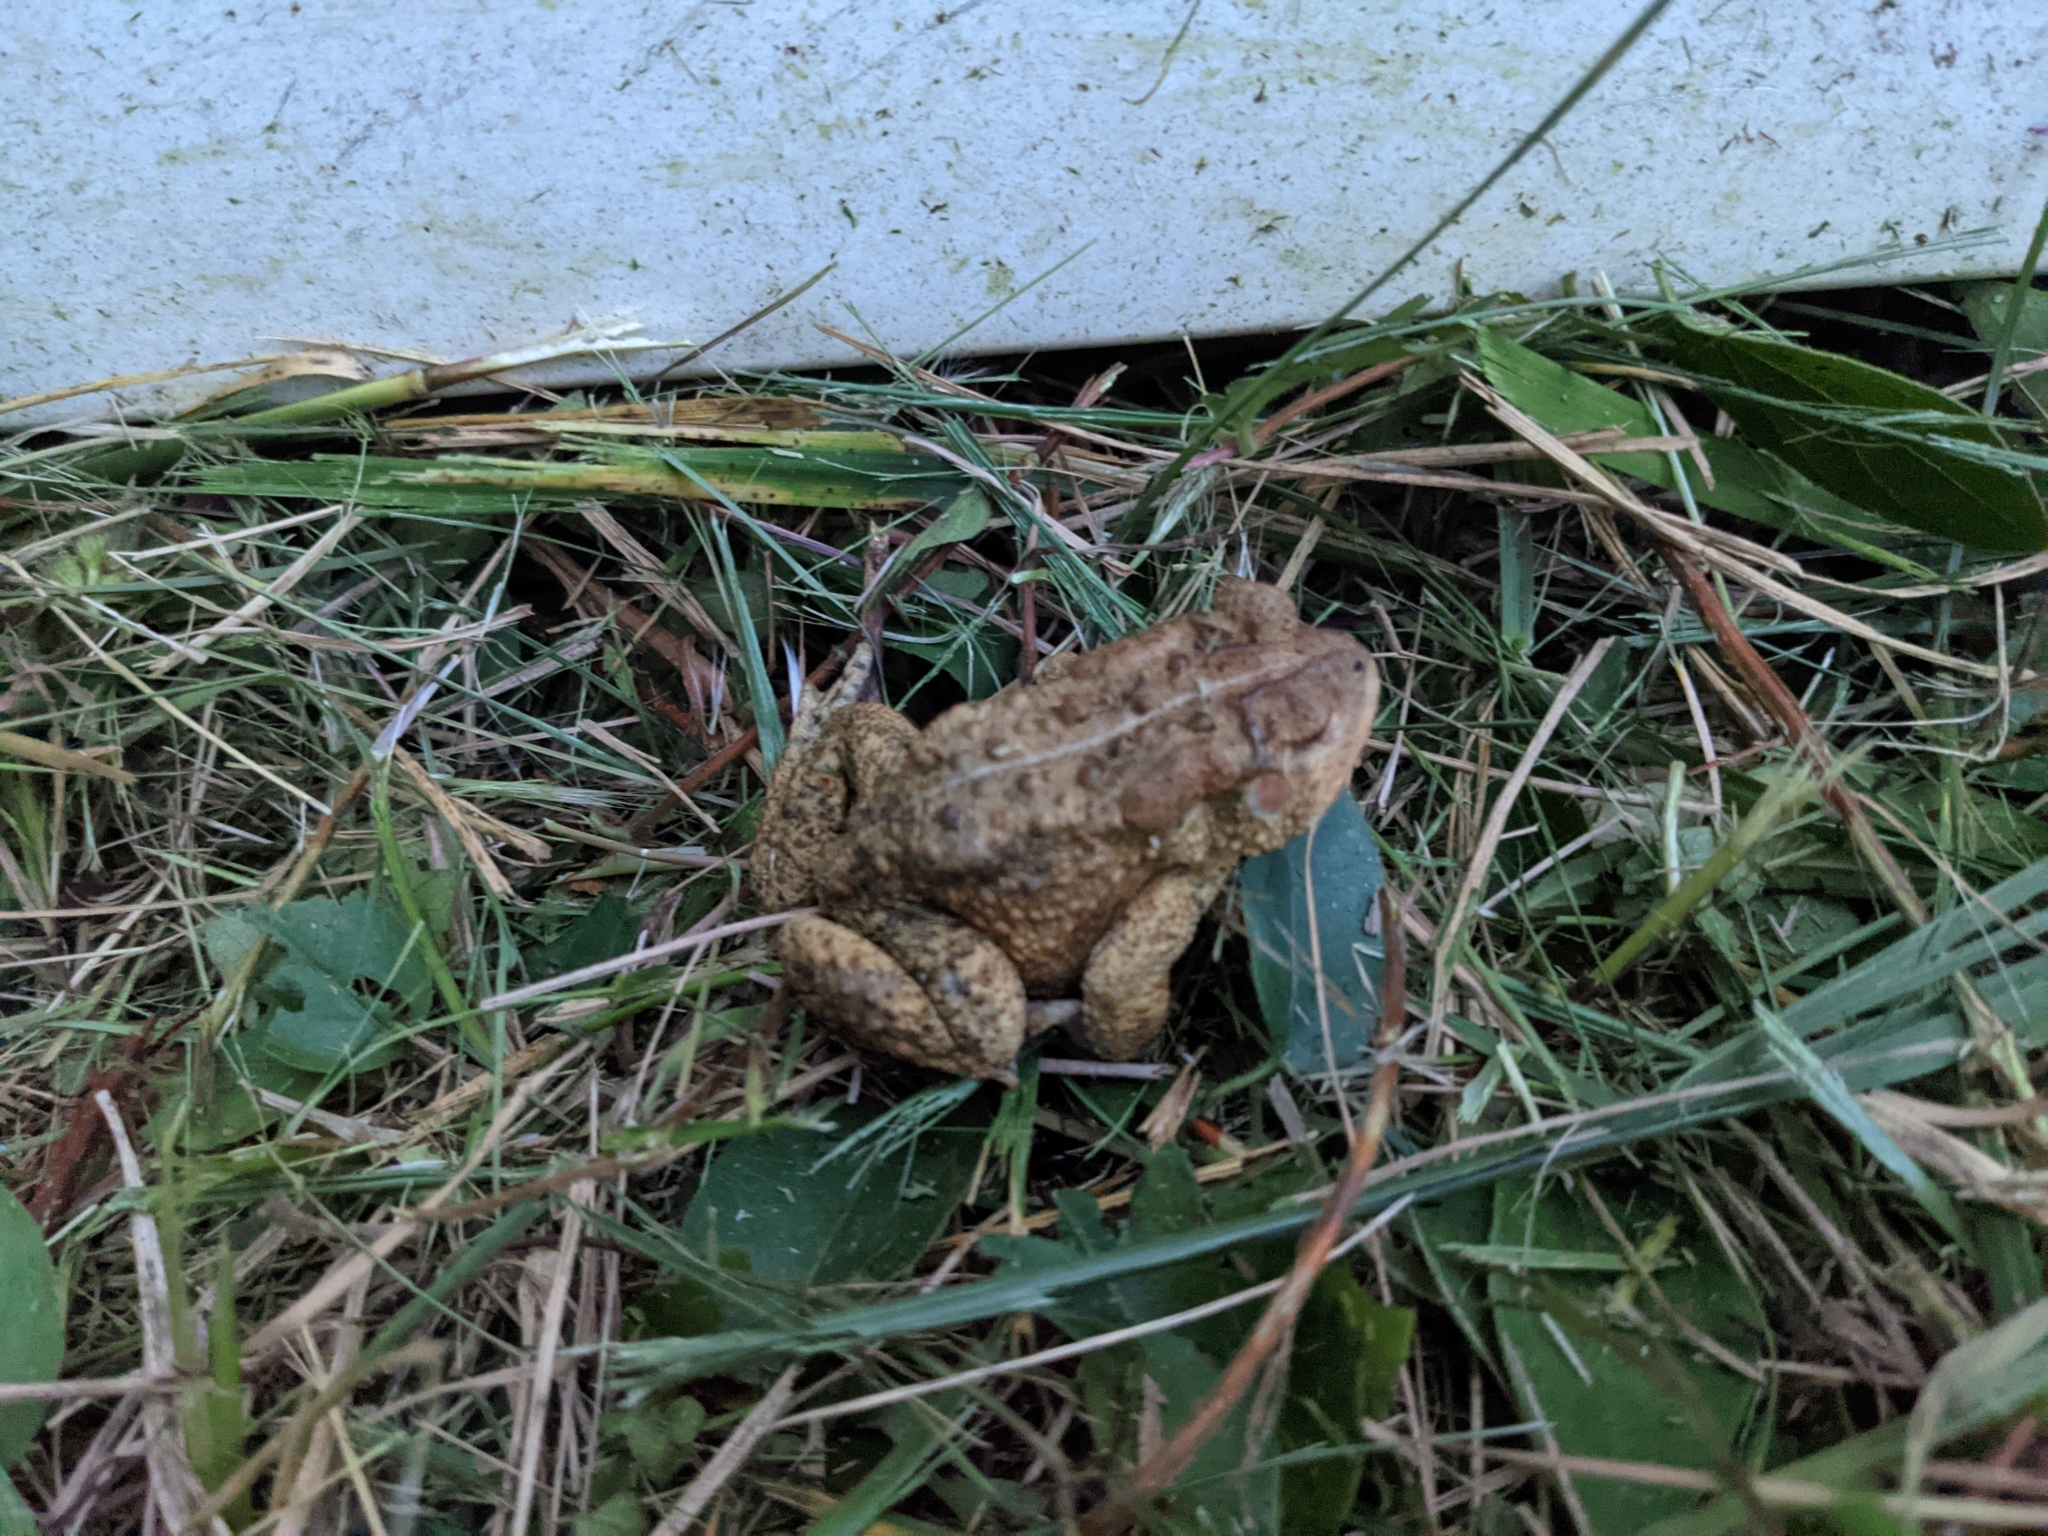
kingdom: Animalia
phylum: Chordata
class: Amphibia
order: Anura
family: Bufonidae
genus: Anaxyrus
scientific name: Anaxyrus americanus
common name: American toad
